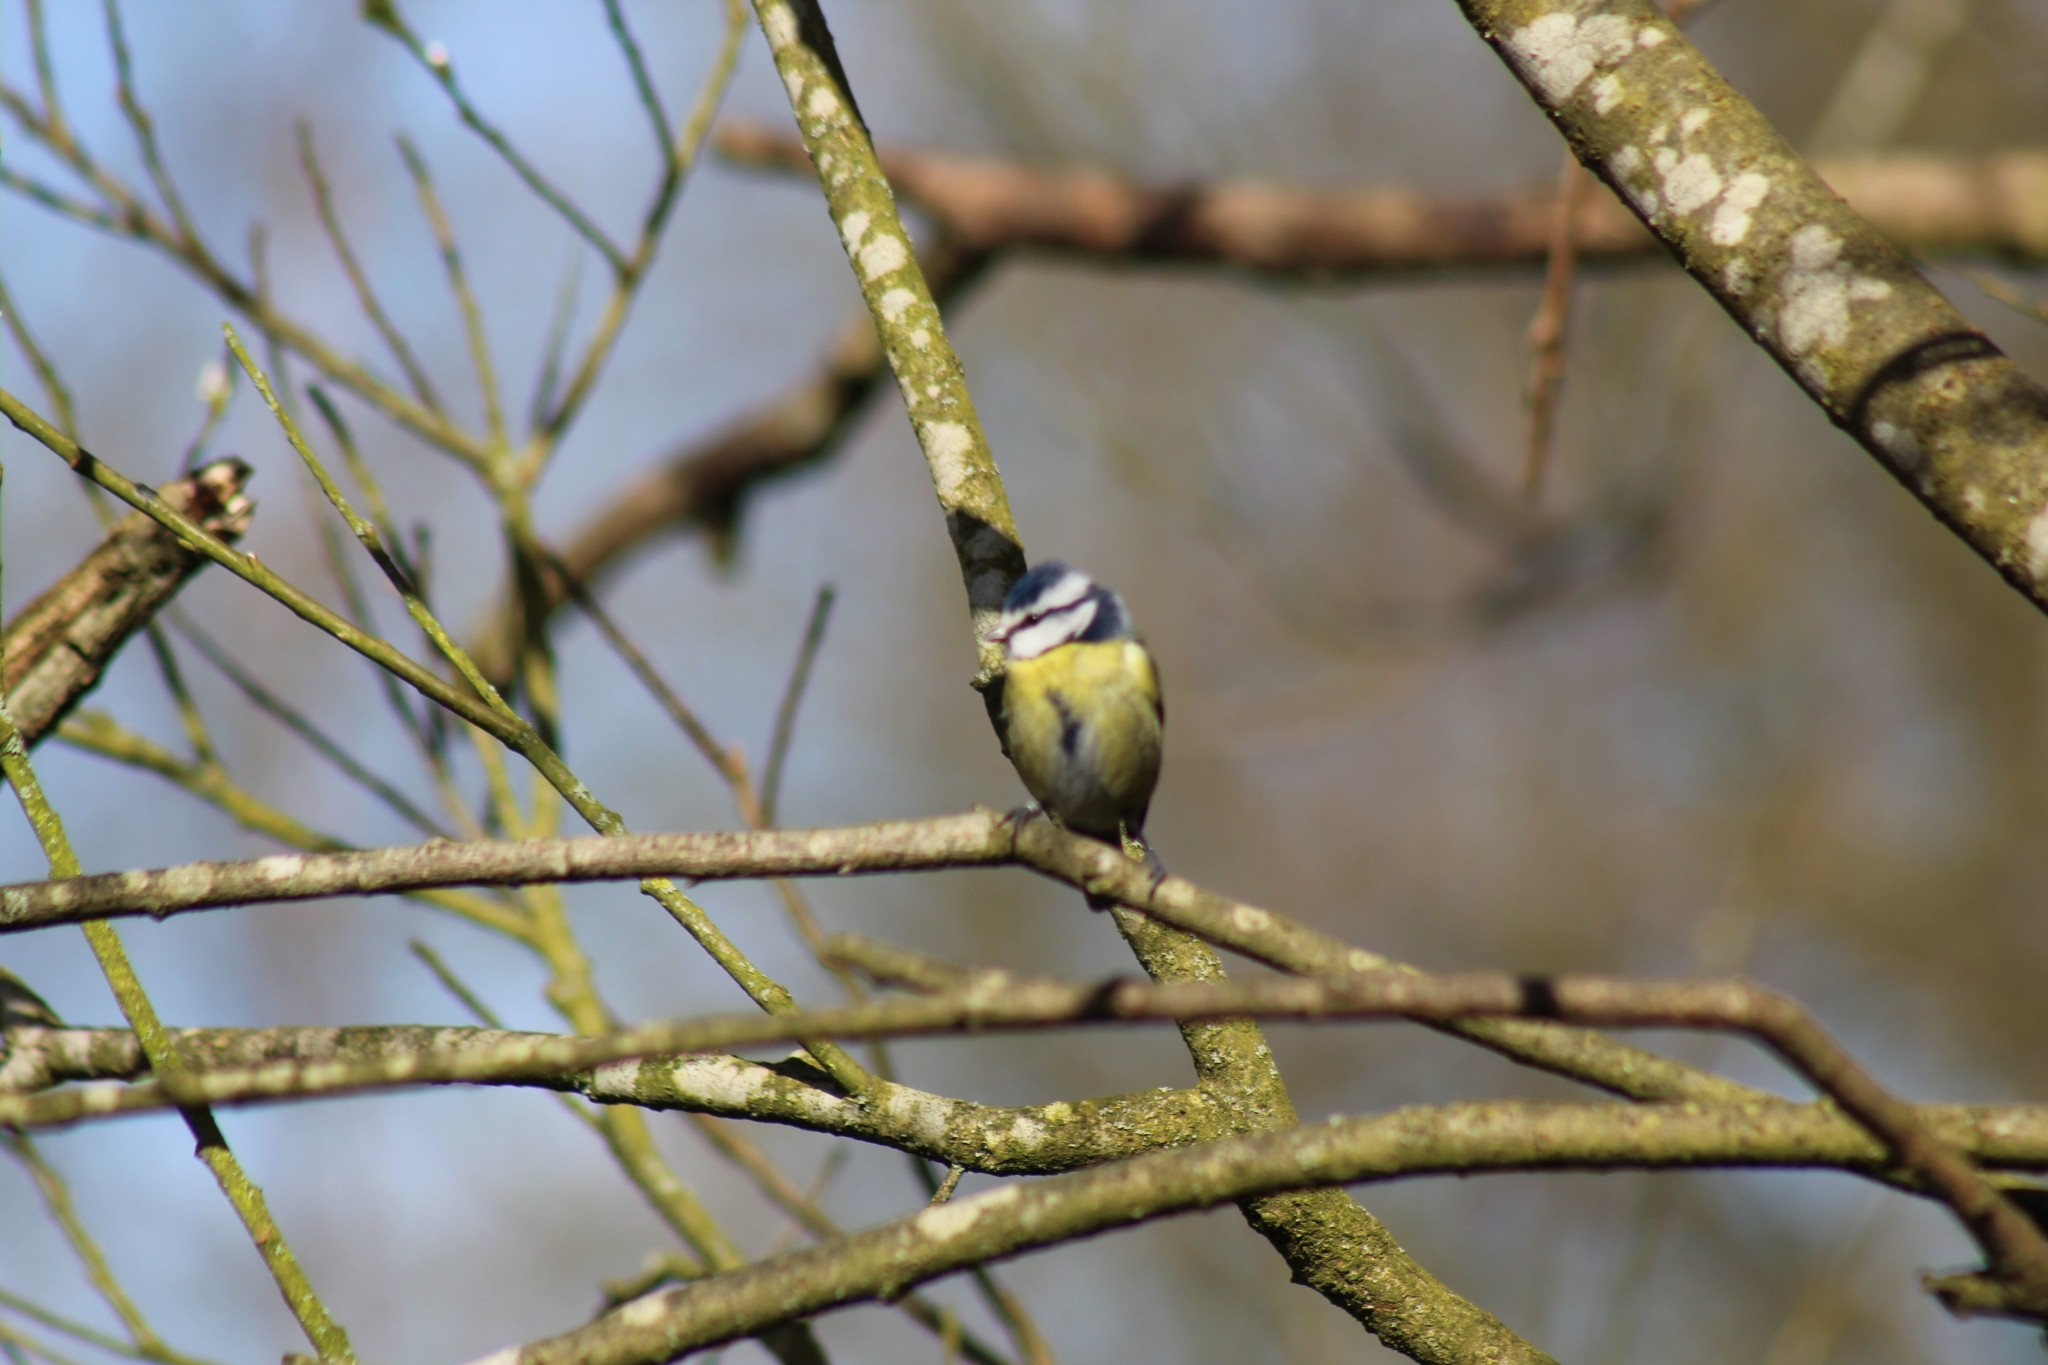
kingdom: Animalia
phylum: Chordata
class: Aves
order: Passeriformes
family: Paridae
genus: Cyanistes
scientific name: Cyanistes caeruleus
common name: Eurasian blue tit
